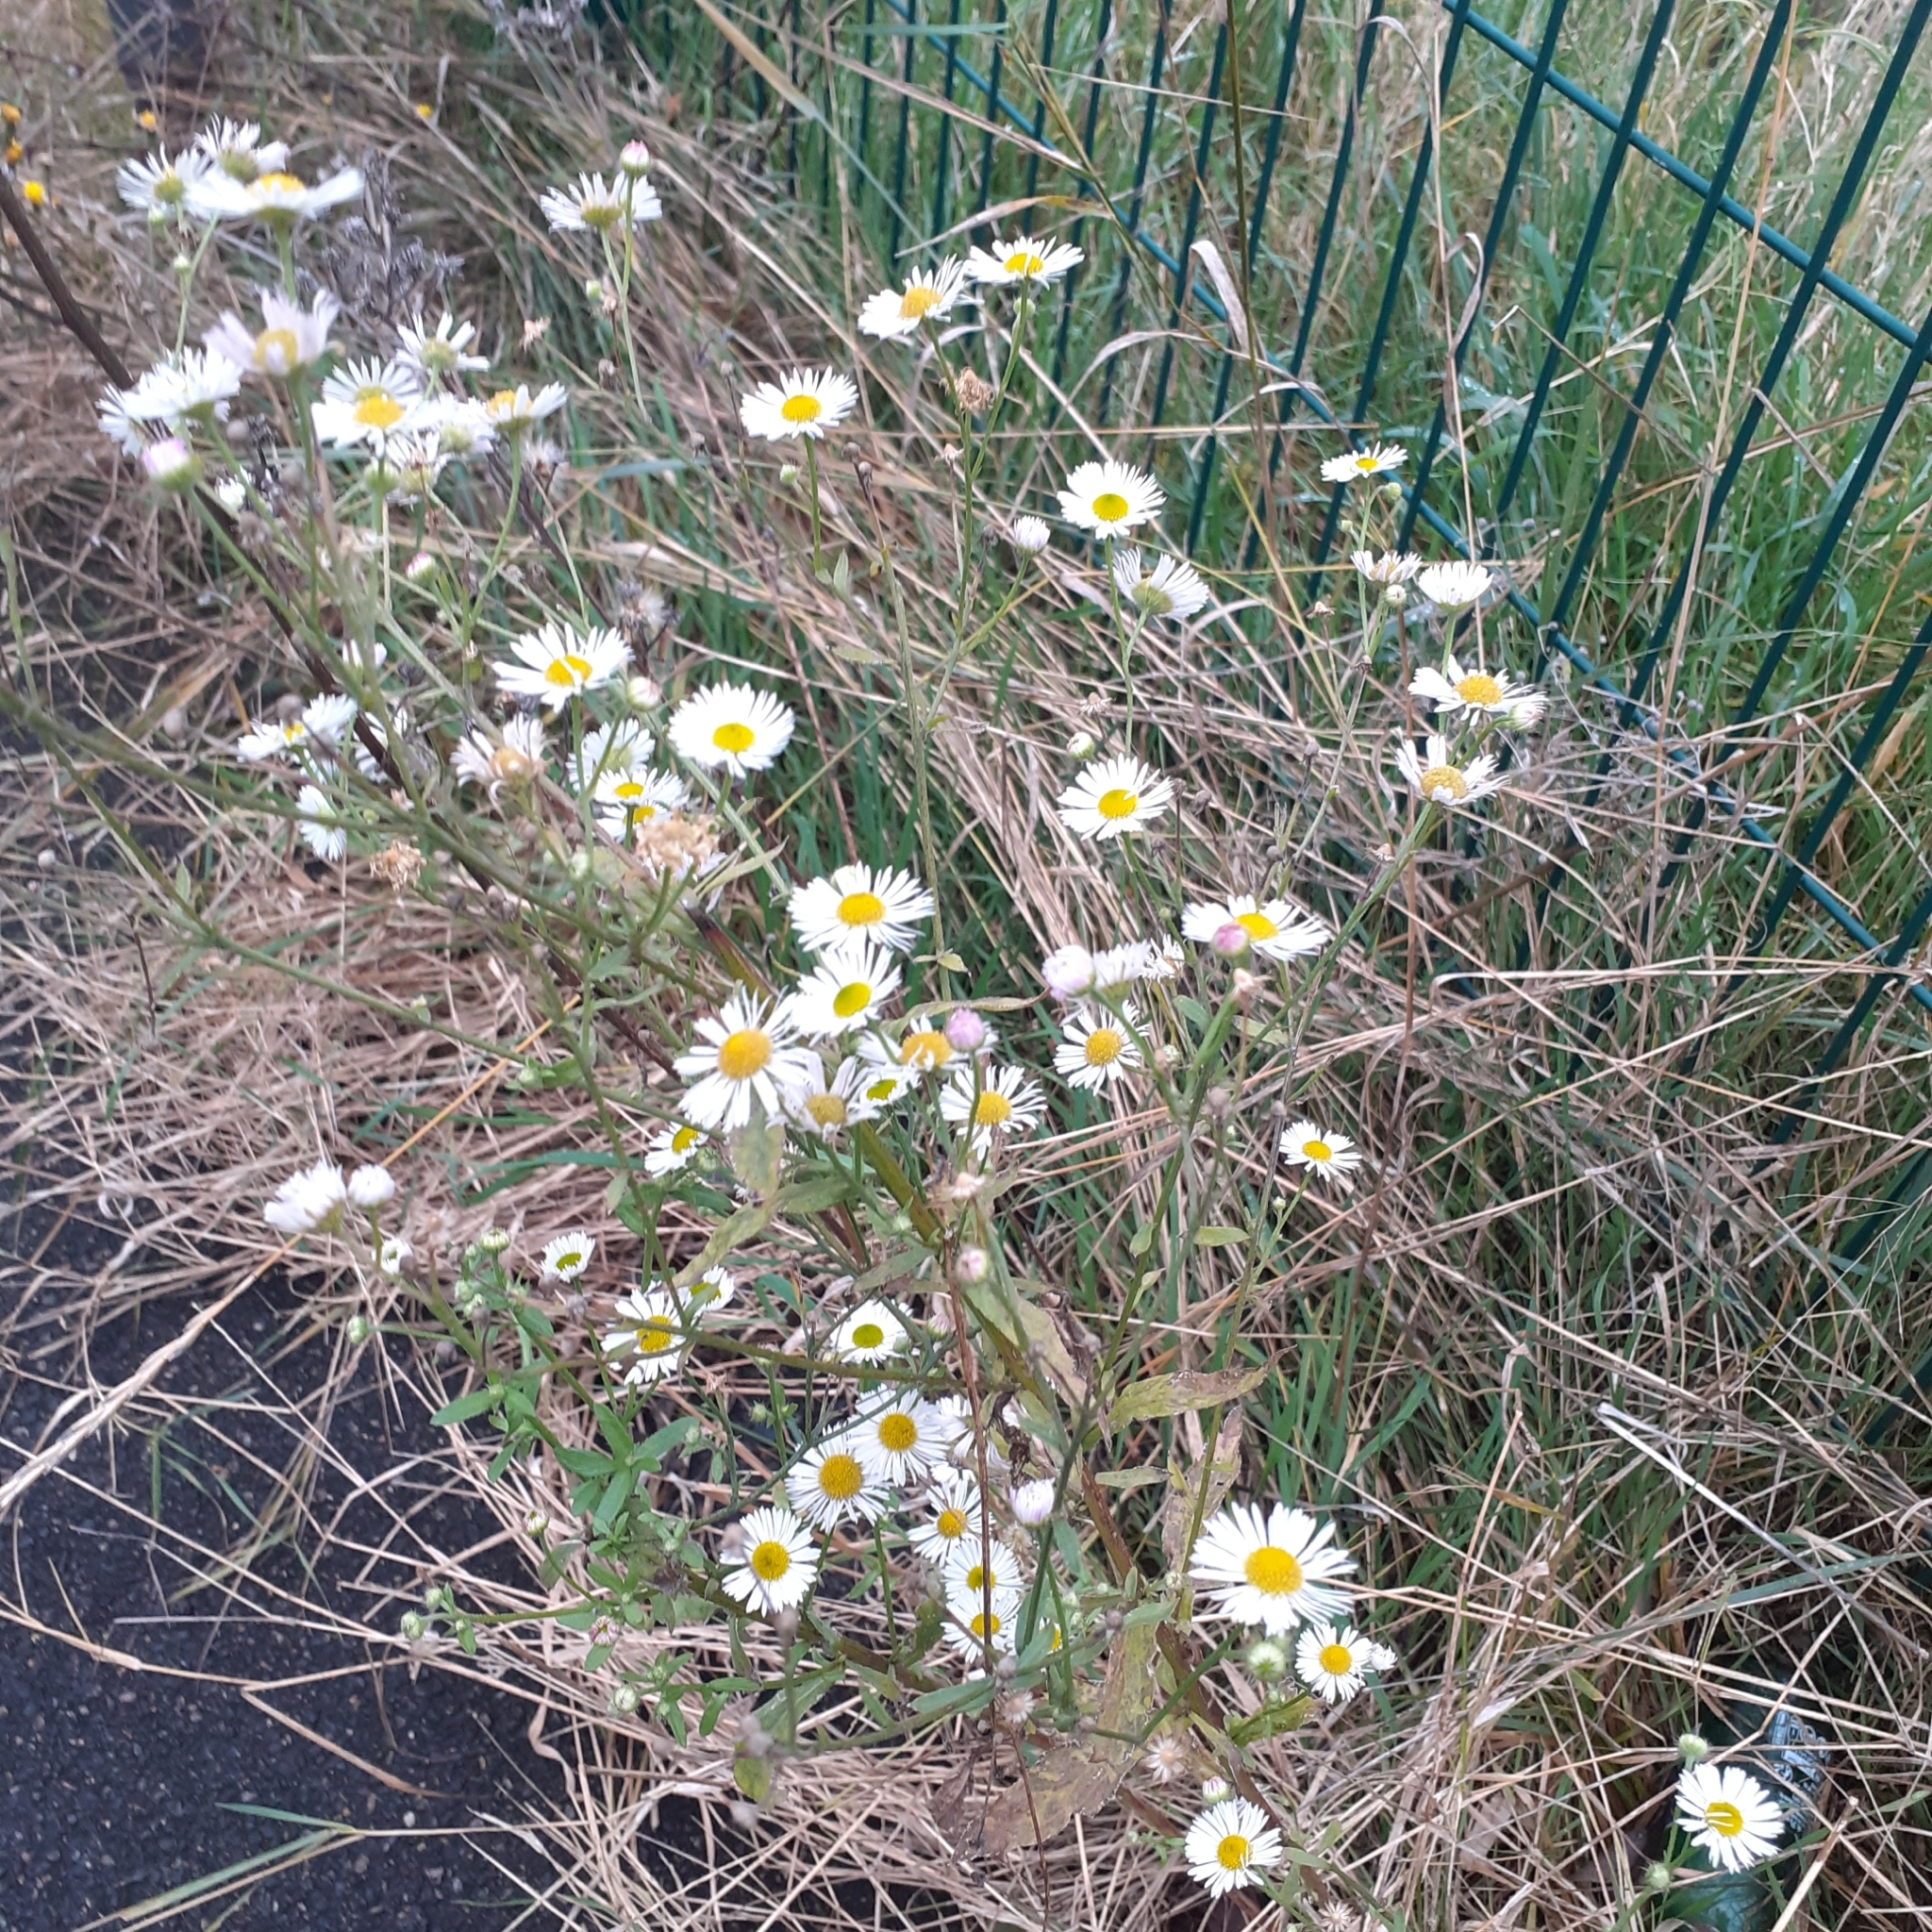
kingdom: Plantae
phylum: Tracheophyta
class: Magnoliopsida
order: Asterales
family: Asteraceae
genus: Erigeron
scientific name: Erigeron annuus
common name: Tall fleabane
